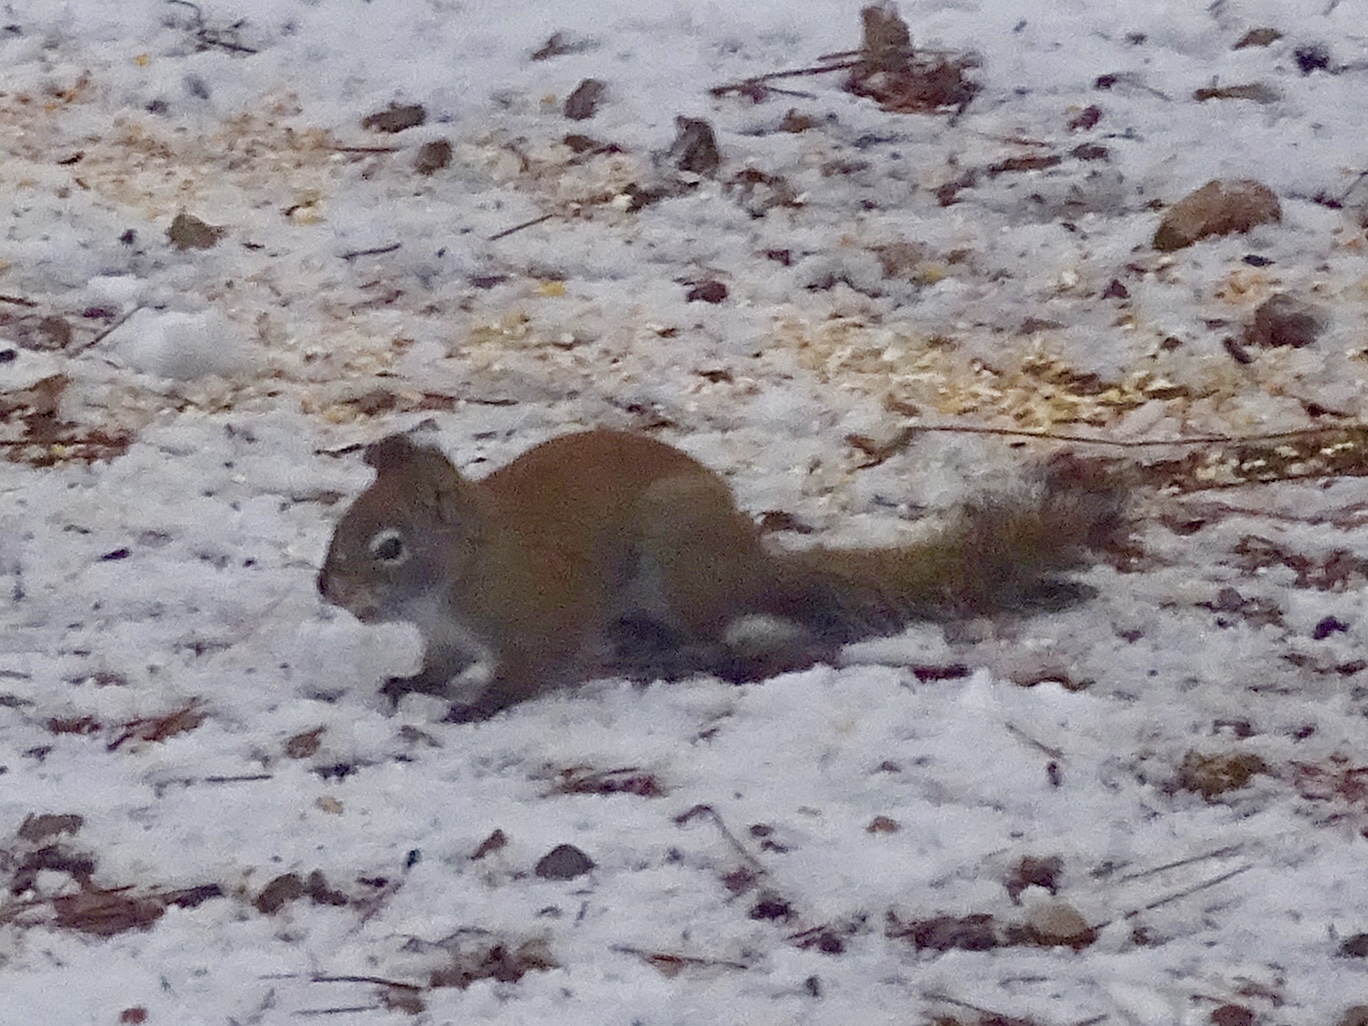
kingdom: Animalia
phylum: Chordata
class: Mammalia
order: Rodentia
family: Sciuridae
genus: Tamiasciurus
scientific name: Tamiasciurus hudsonicus
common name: Red squirrel
